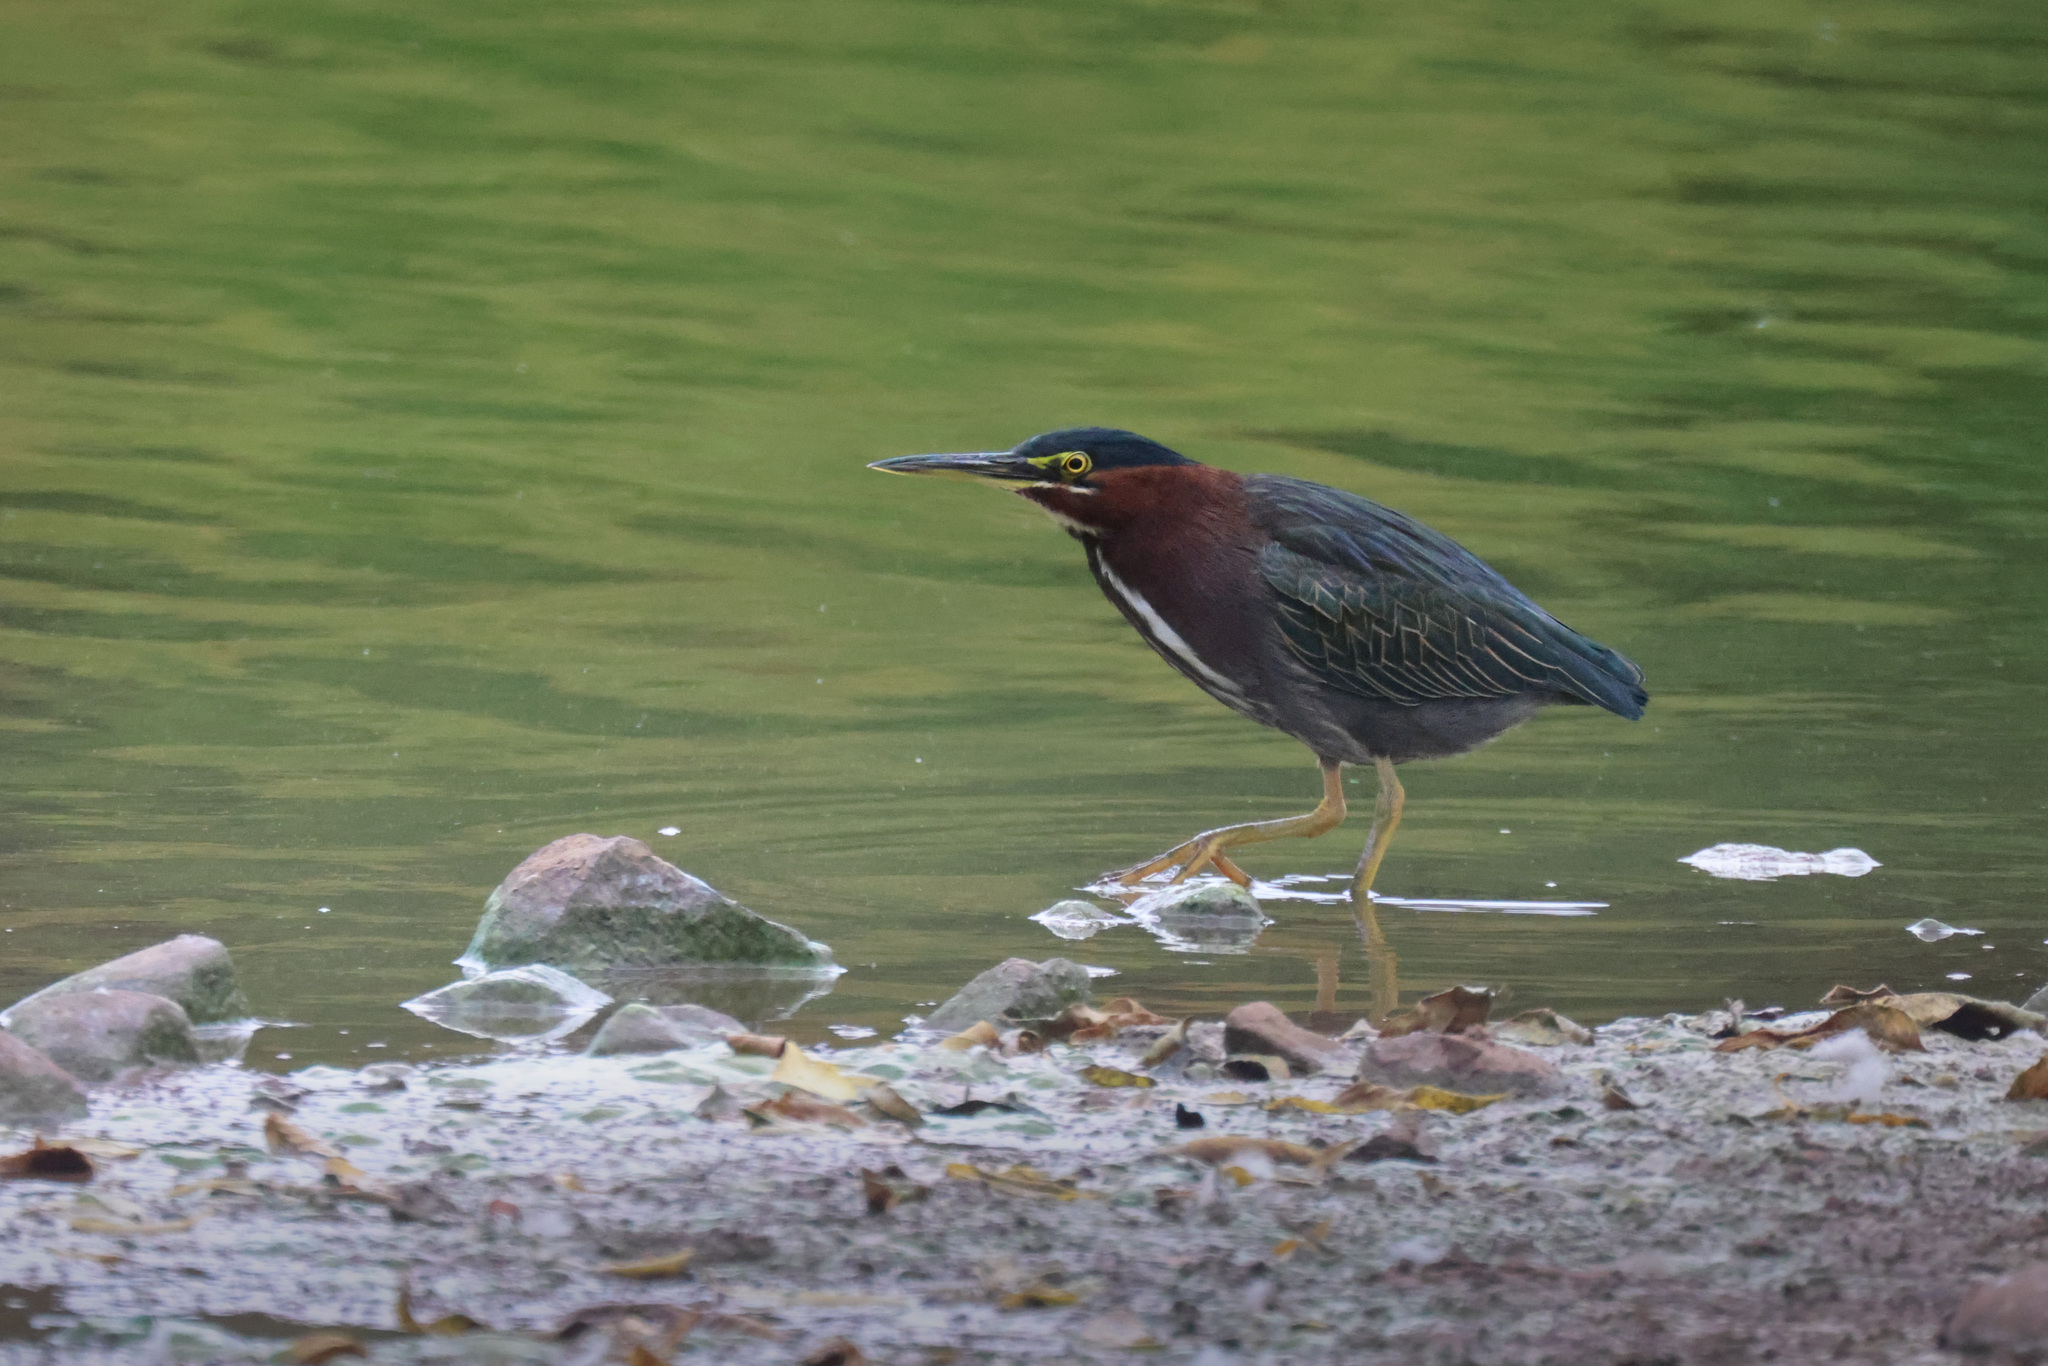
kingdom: Animalia
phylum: Chordata
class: Aves
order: Pelecaniformes
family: Ardeidae
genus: Butorides
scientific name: Butorides virescens
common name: Green heron
